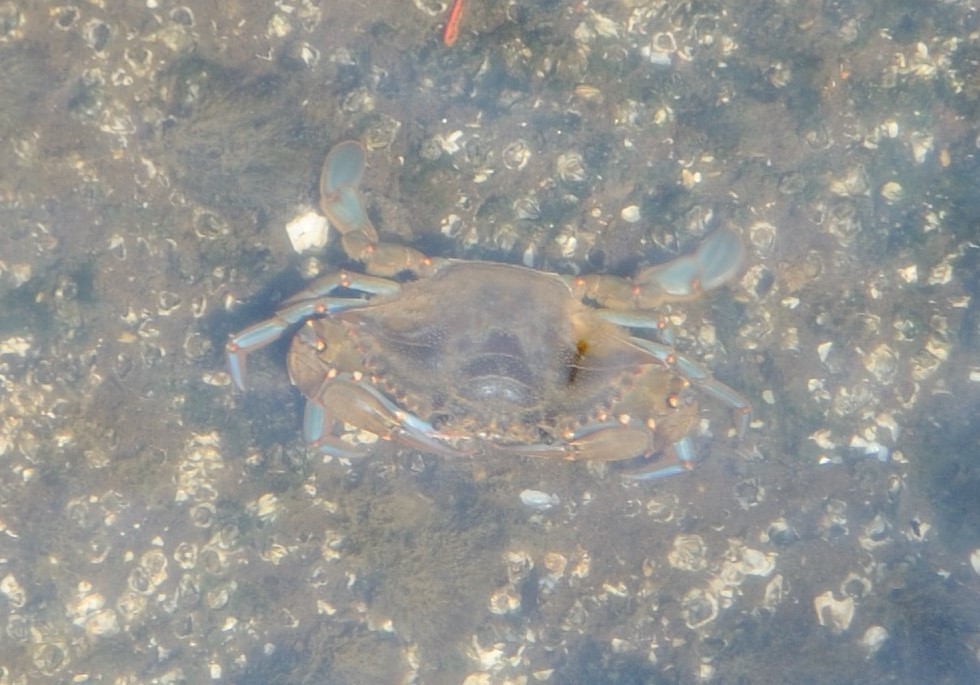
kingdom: Animalia
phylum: Arthropoda
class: Malacostraca
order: Decapoda
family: Portunidae
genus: Callinectes
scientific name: Callinectes sapidus
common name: Blue crab
